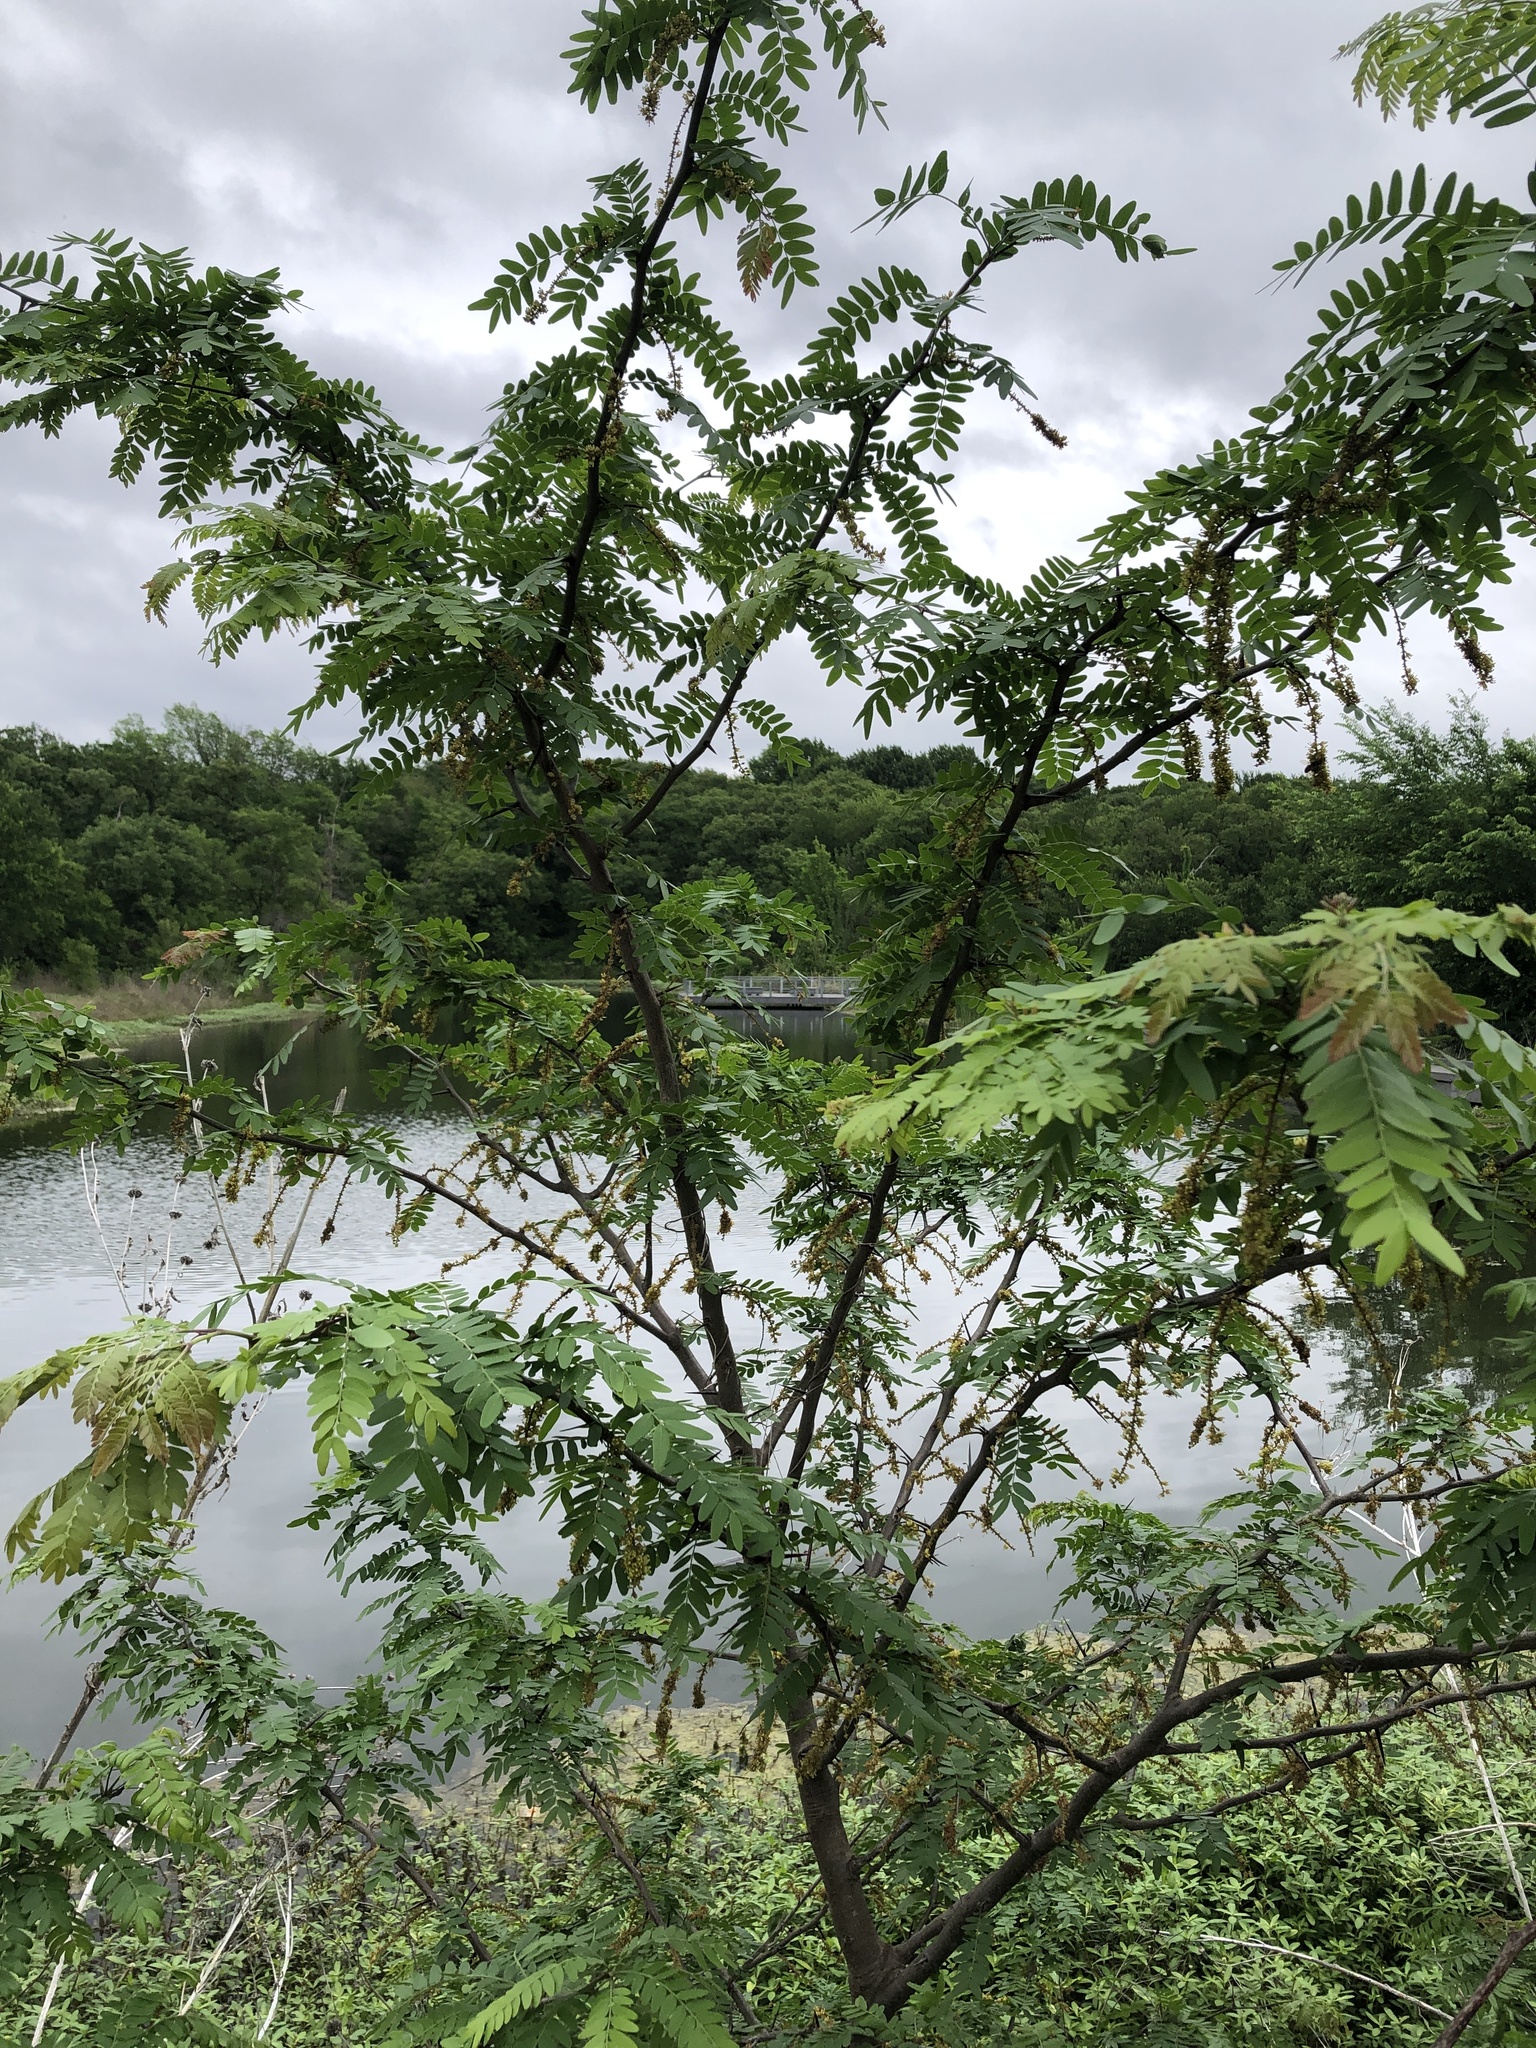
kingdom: Plantae
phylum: Tracheophyta
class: Magnoliopsida
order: Fabales
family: Fabaceae
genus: Gleditsia
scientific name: Gleditsia triacanthos
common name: Common honeylocust
